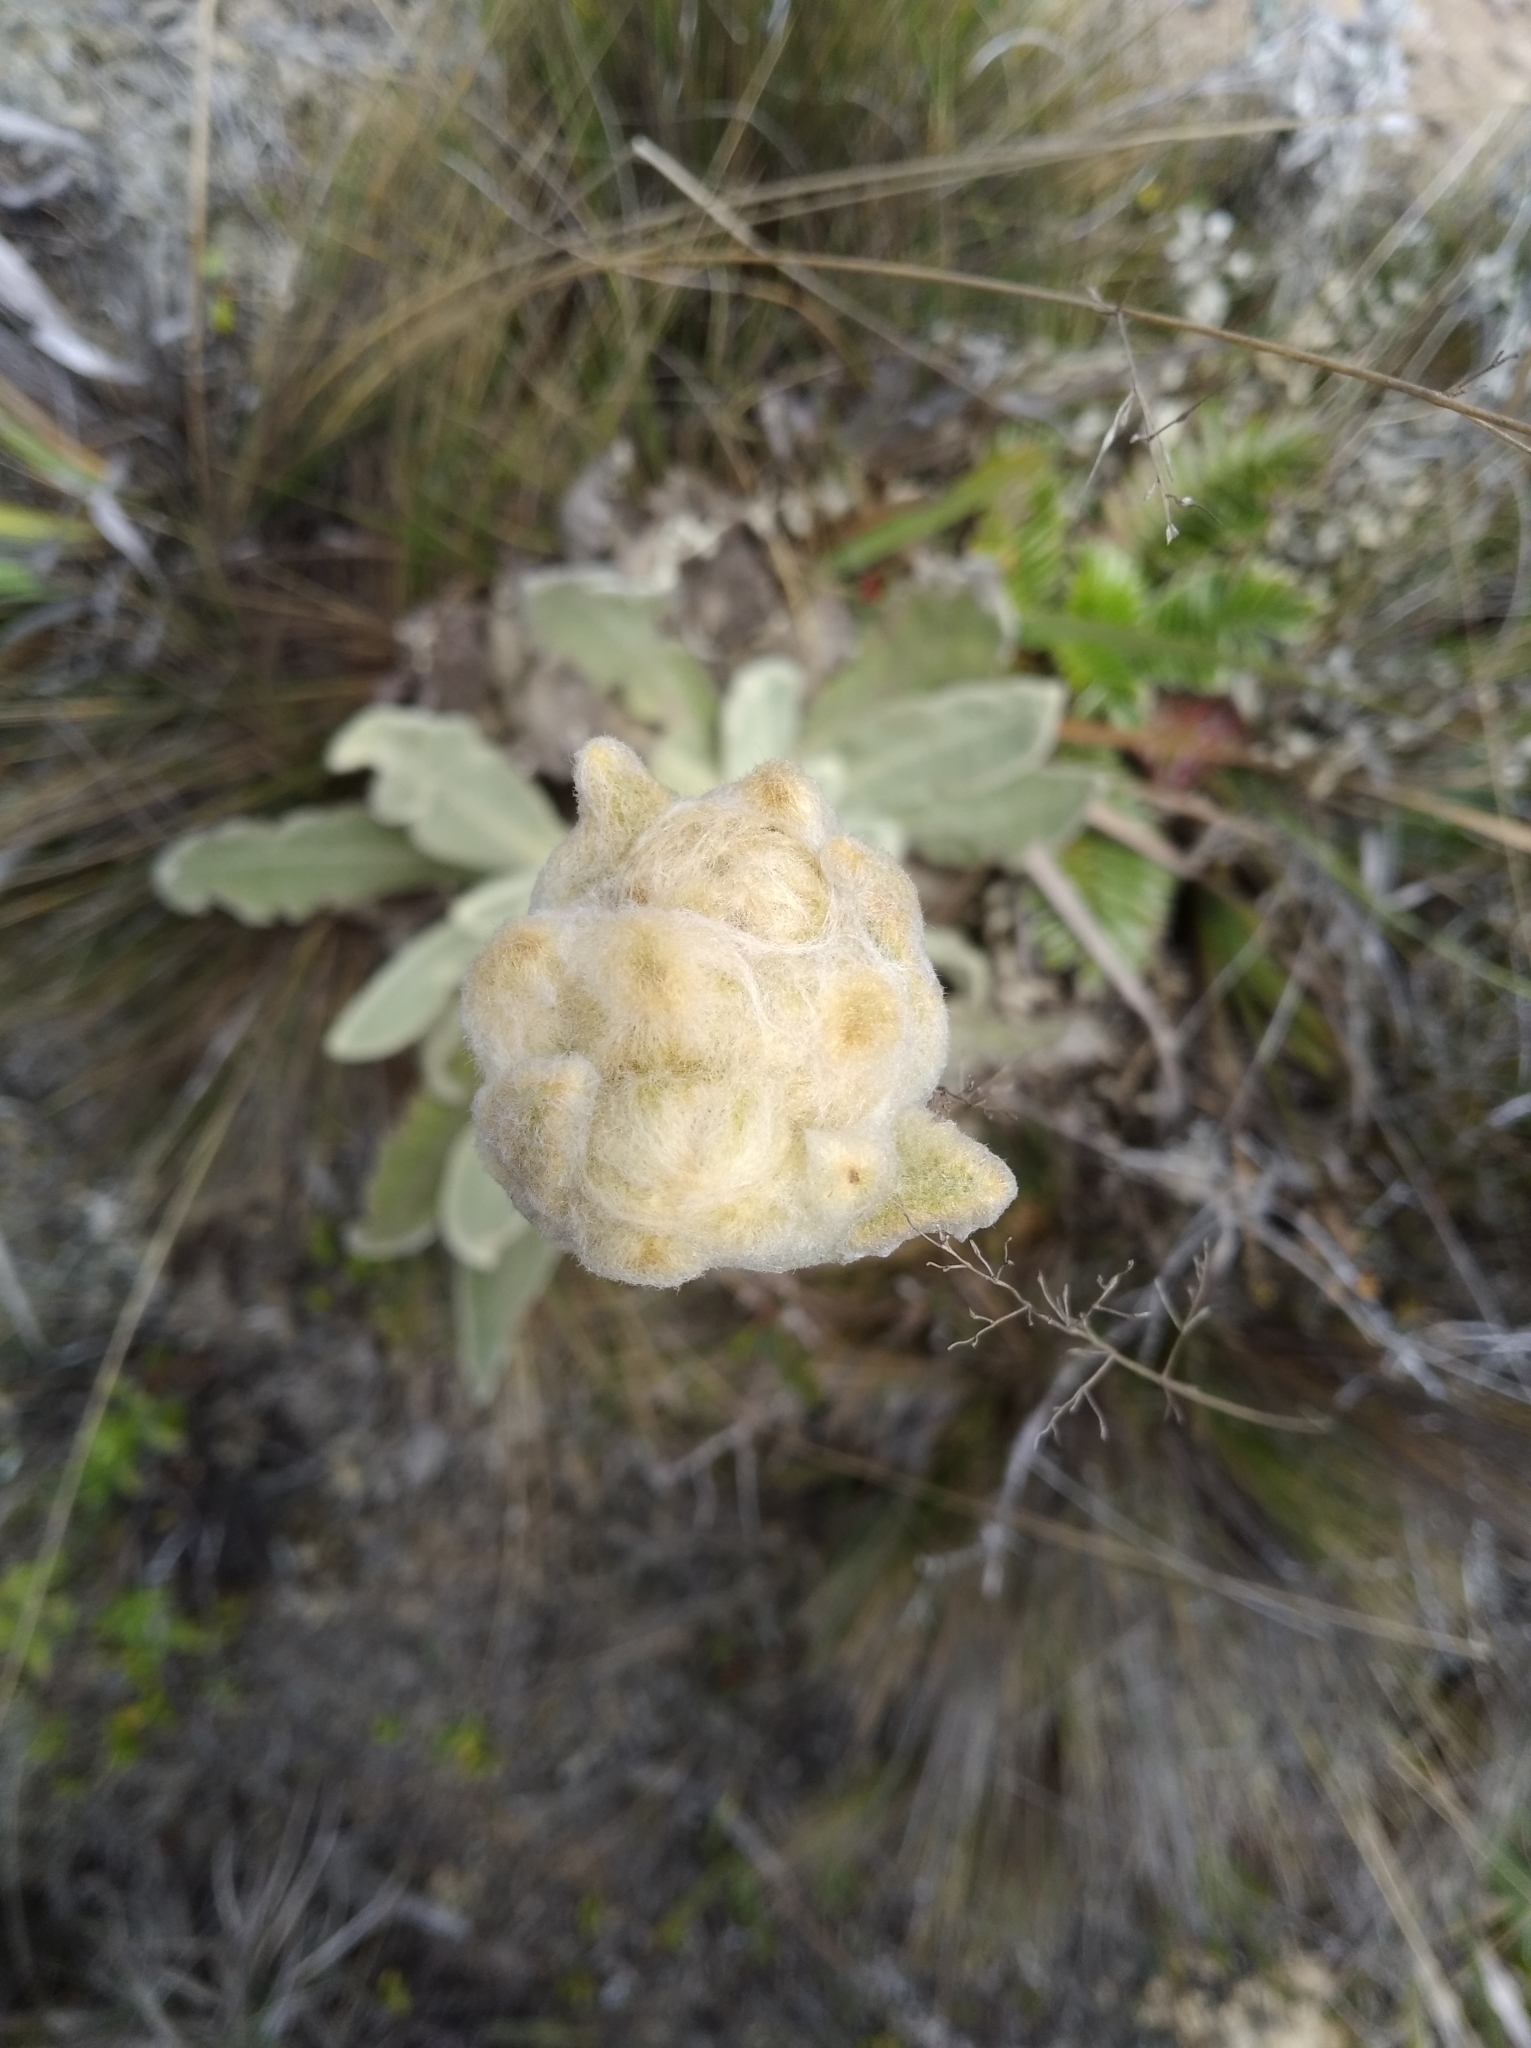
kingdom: Plantae
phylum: Tracheophyta
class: Magnoliopsida
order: Asterales
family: Asteraceae
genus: Espeletia
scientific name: Espeletia aristeguietana
